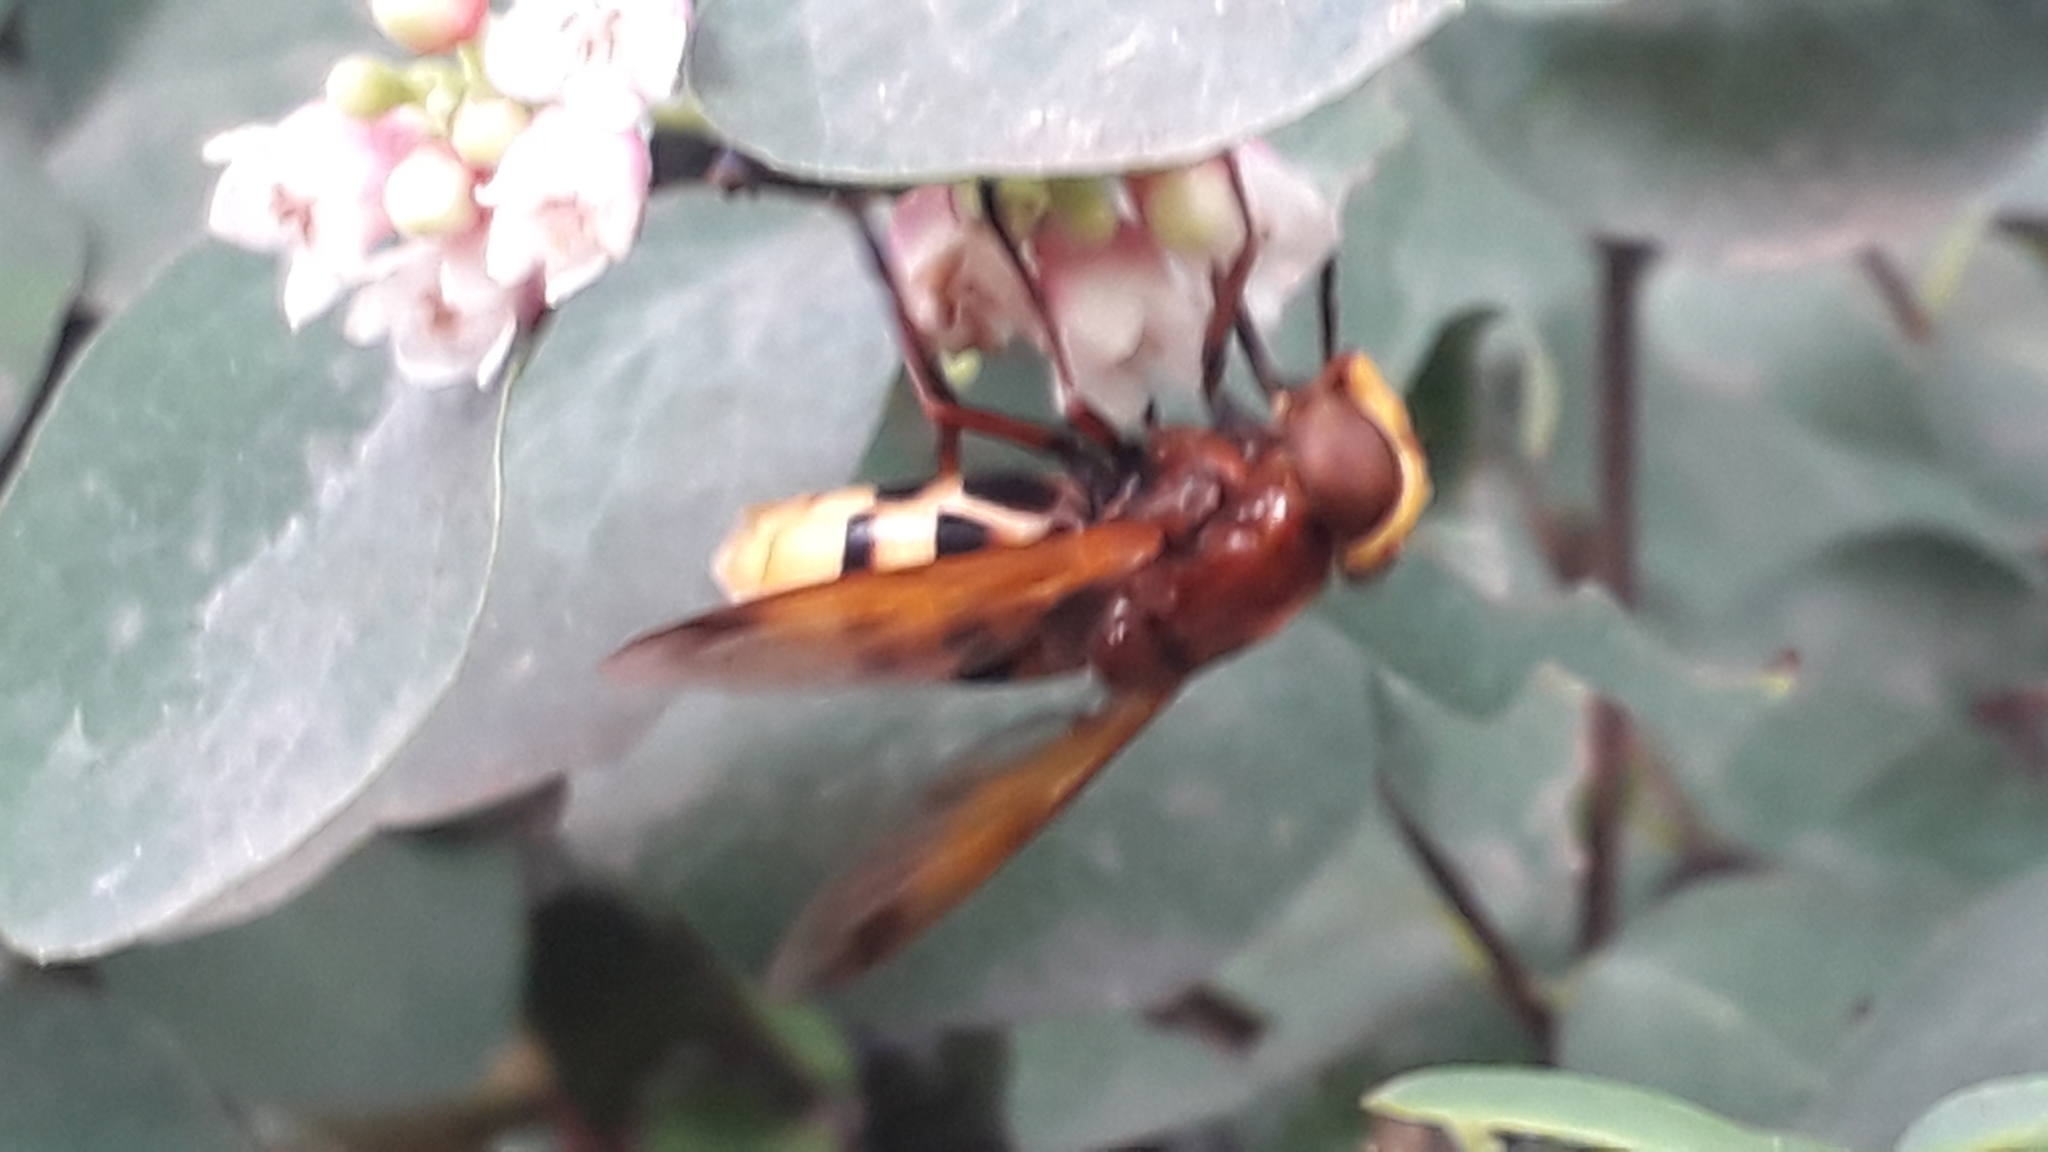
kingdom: Animalia
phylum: Arthropoda
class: Insecta
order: Diptera
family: Syrphidae
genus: Volucella
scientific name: Volucella zonaria
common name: Hornet hoverfly
